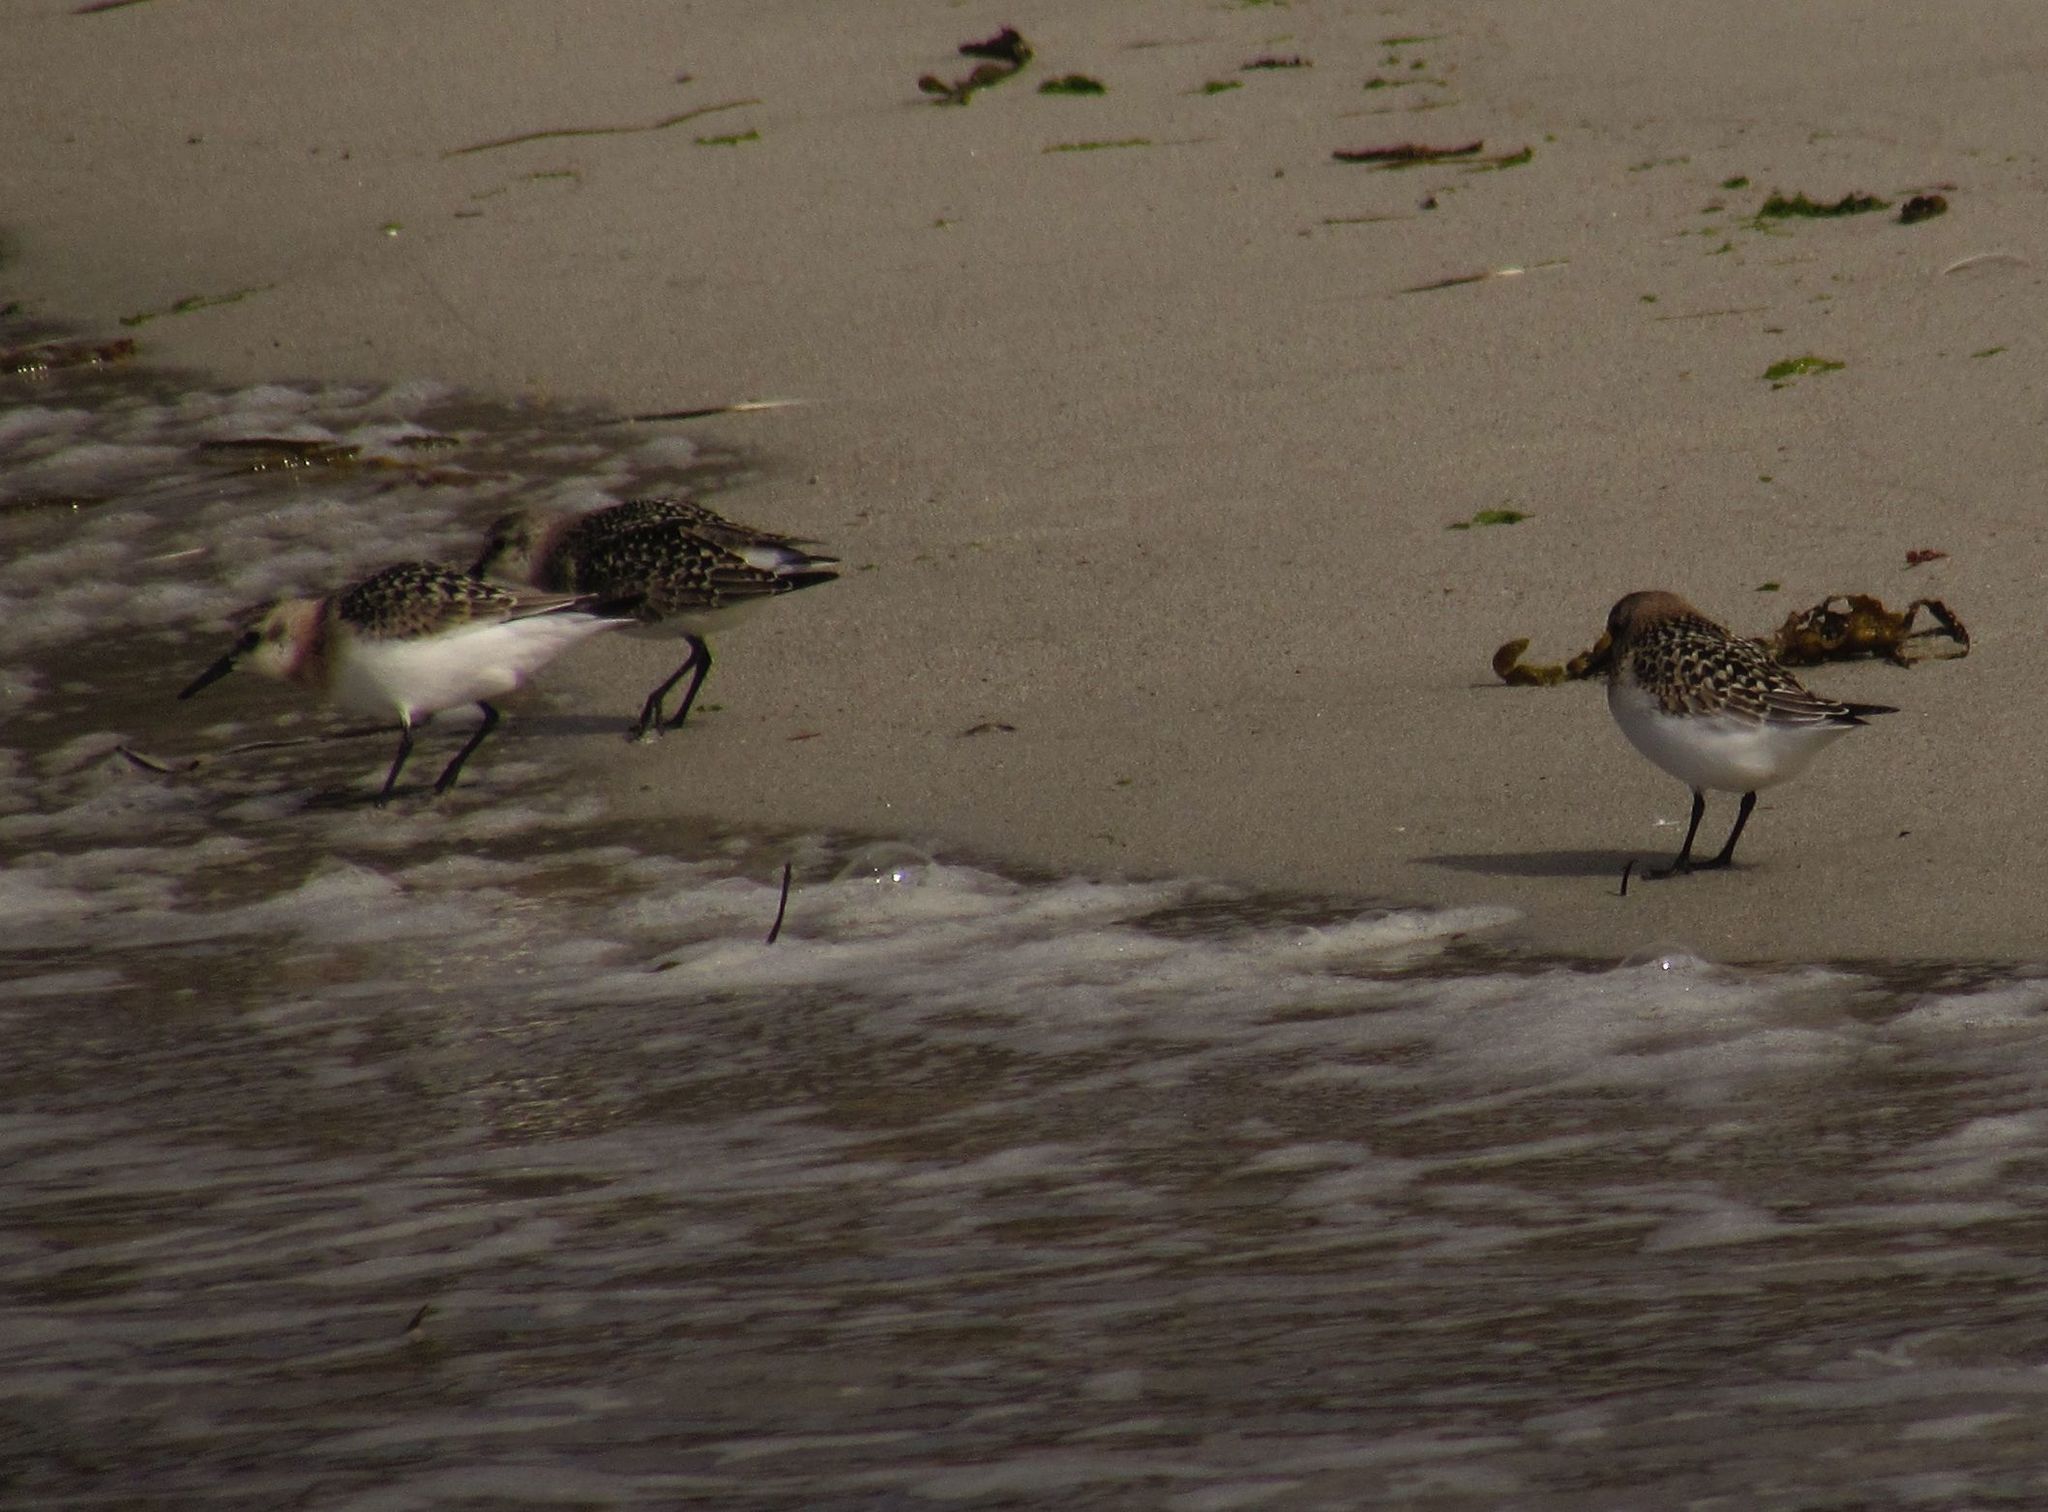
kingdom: Animalia
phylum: Chordata
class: Aves
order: Charadriiformes
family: Scolopacidae
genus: Calidris
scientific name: Calidris alba
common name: Sanderling
